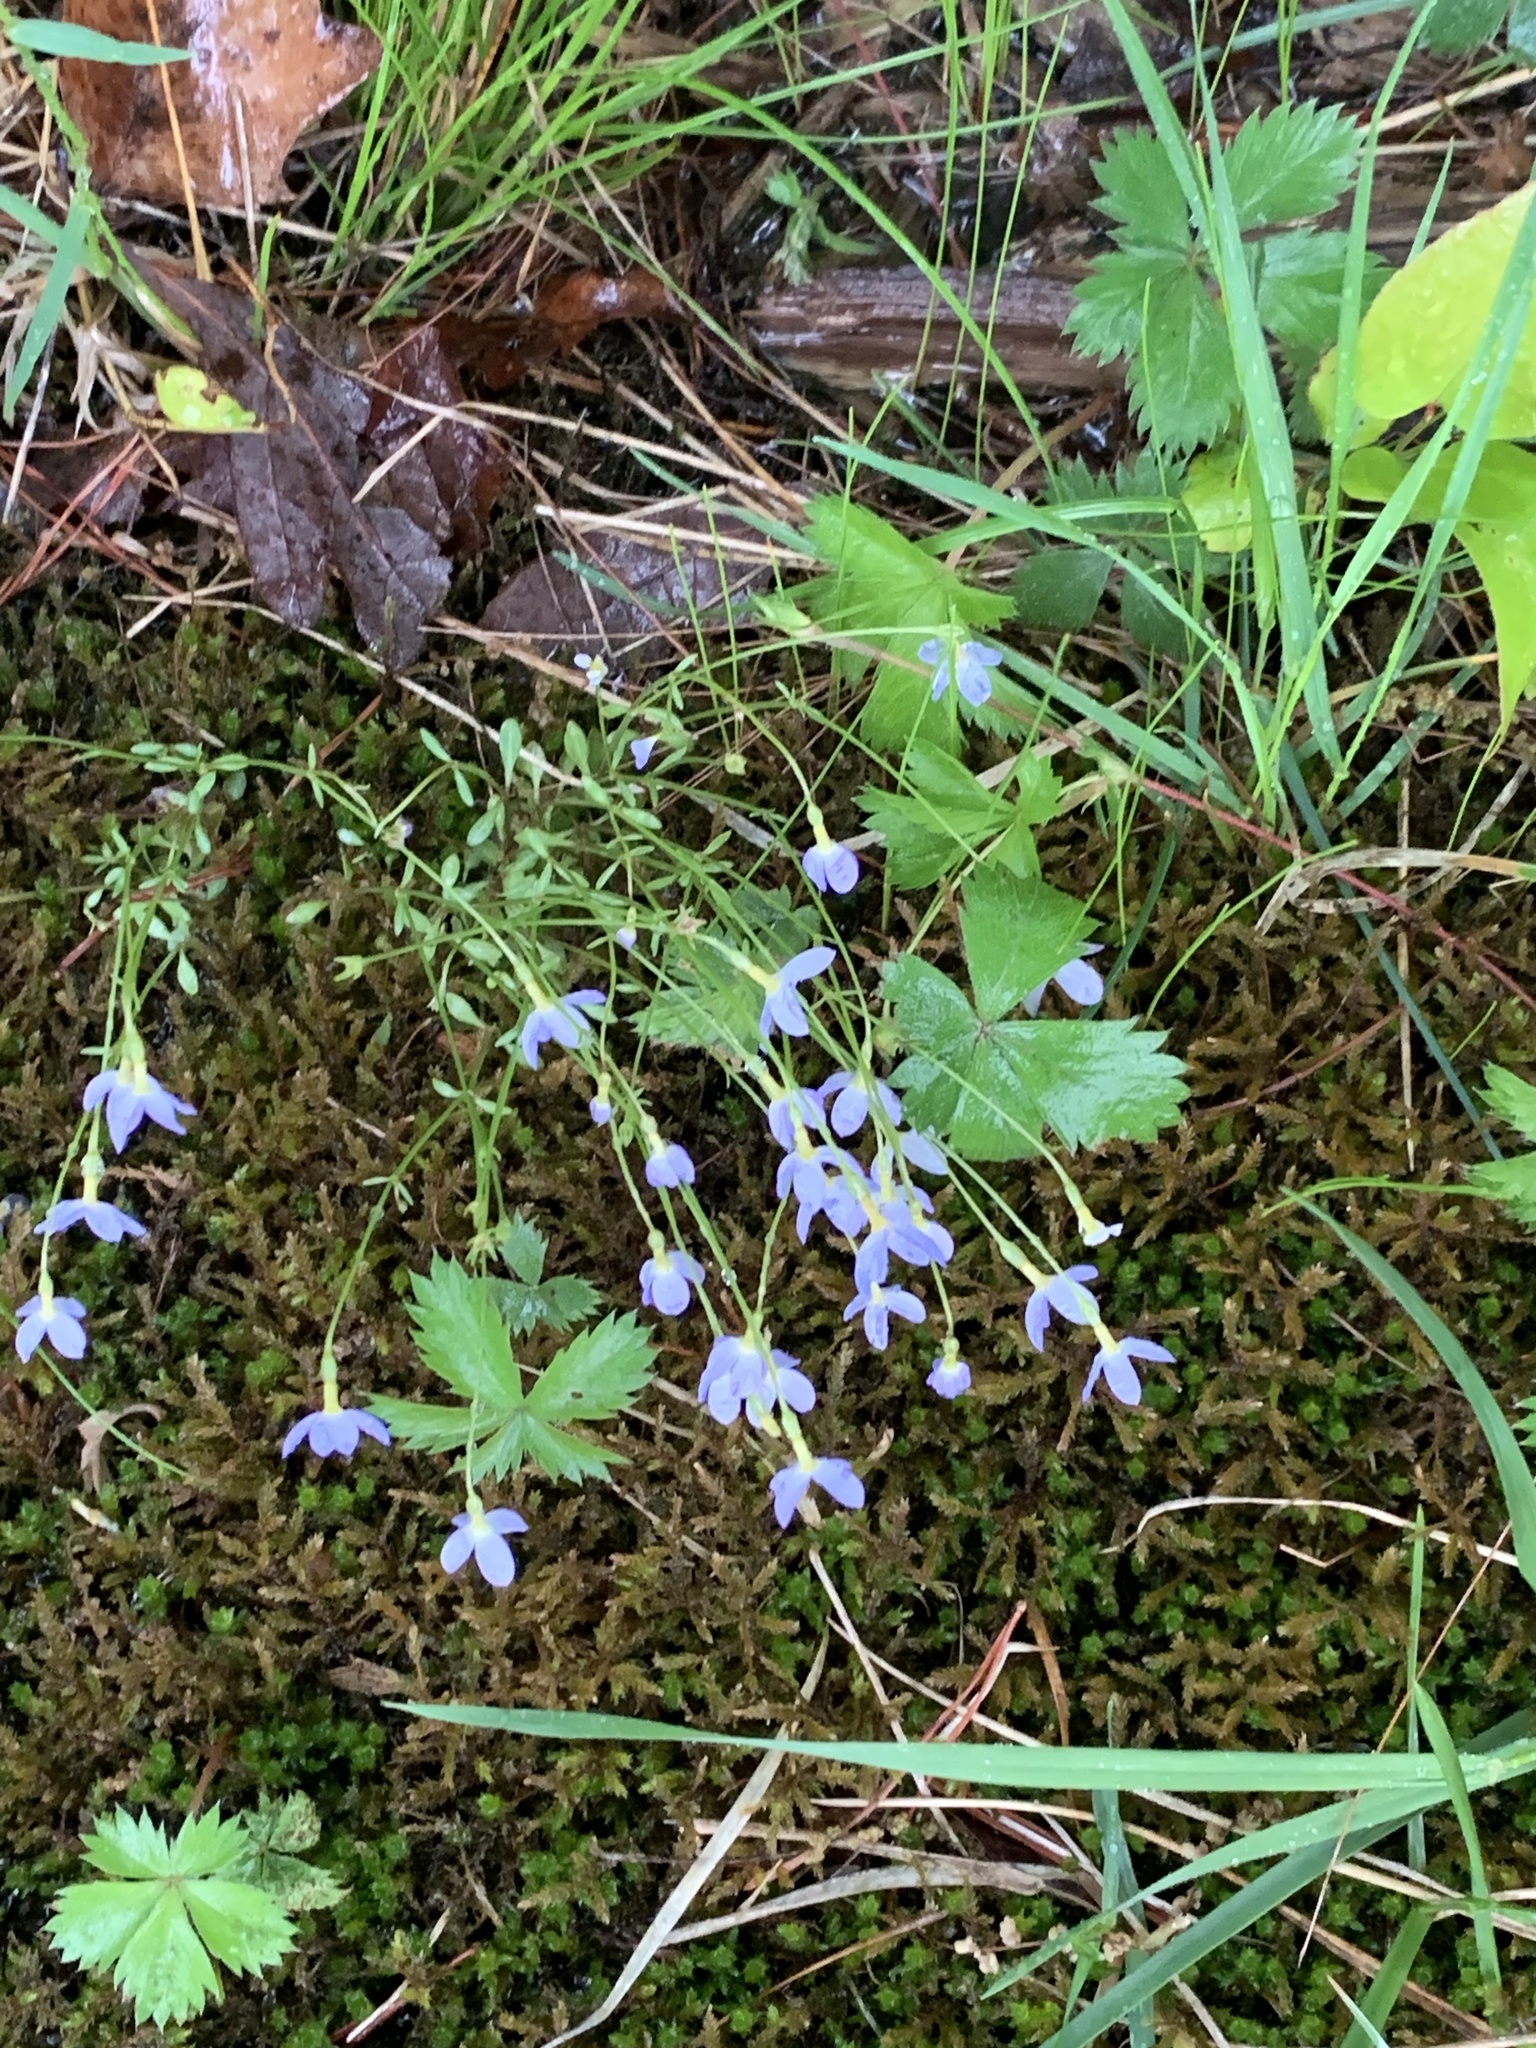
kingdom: Plantae
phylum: Tracheophyta
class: Magnoliopsida
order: Gentianales
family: Rubiaceae
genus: Houstonia
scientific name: Houstonia caerulea
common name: Bluets
